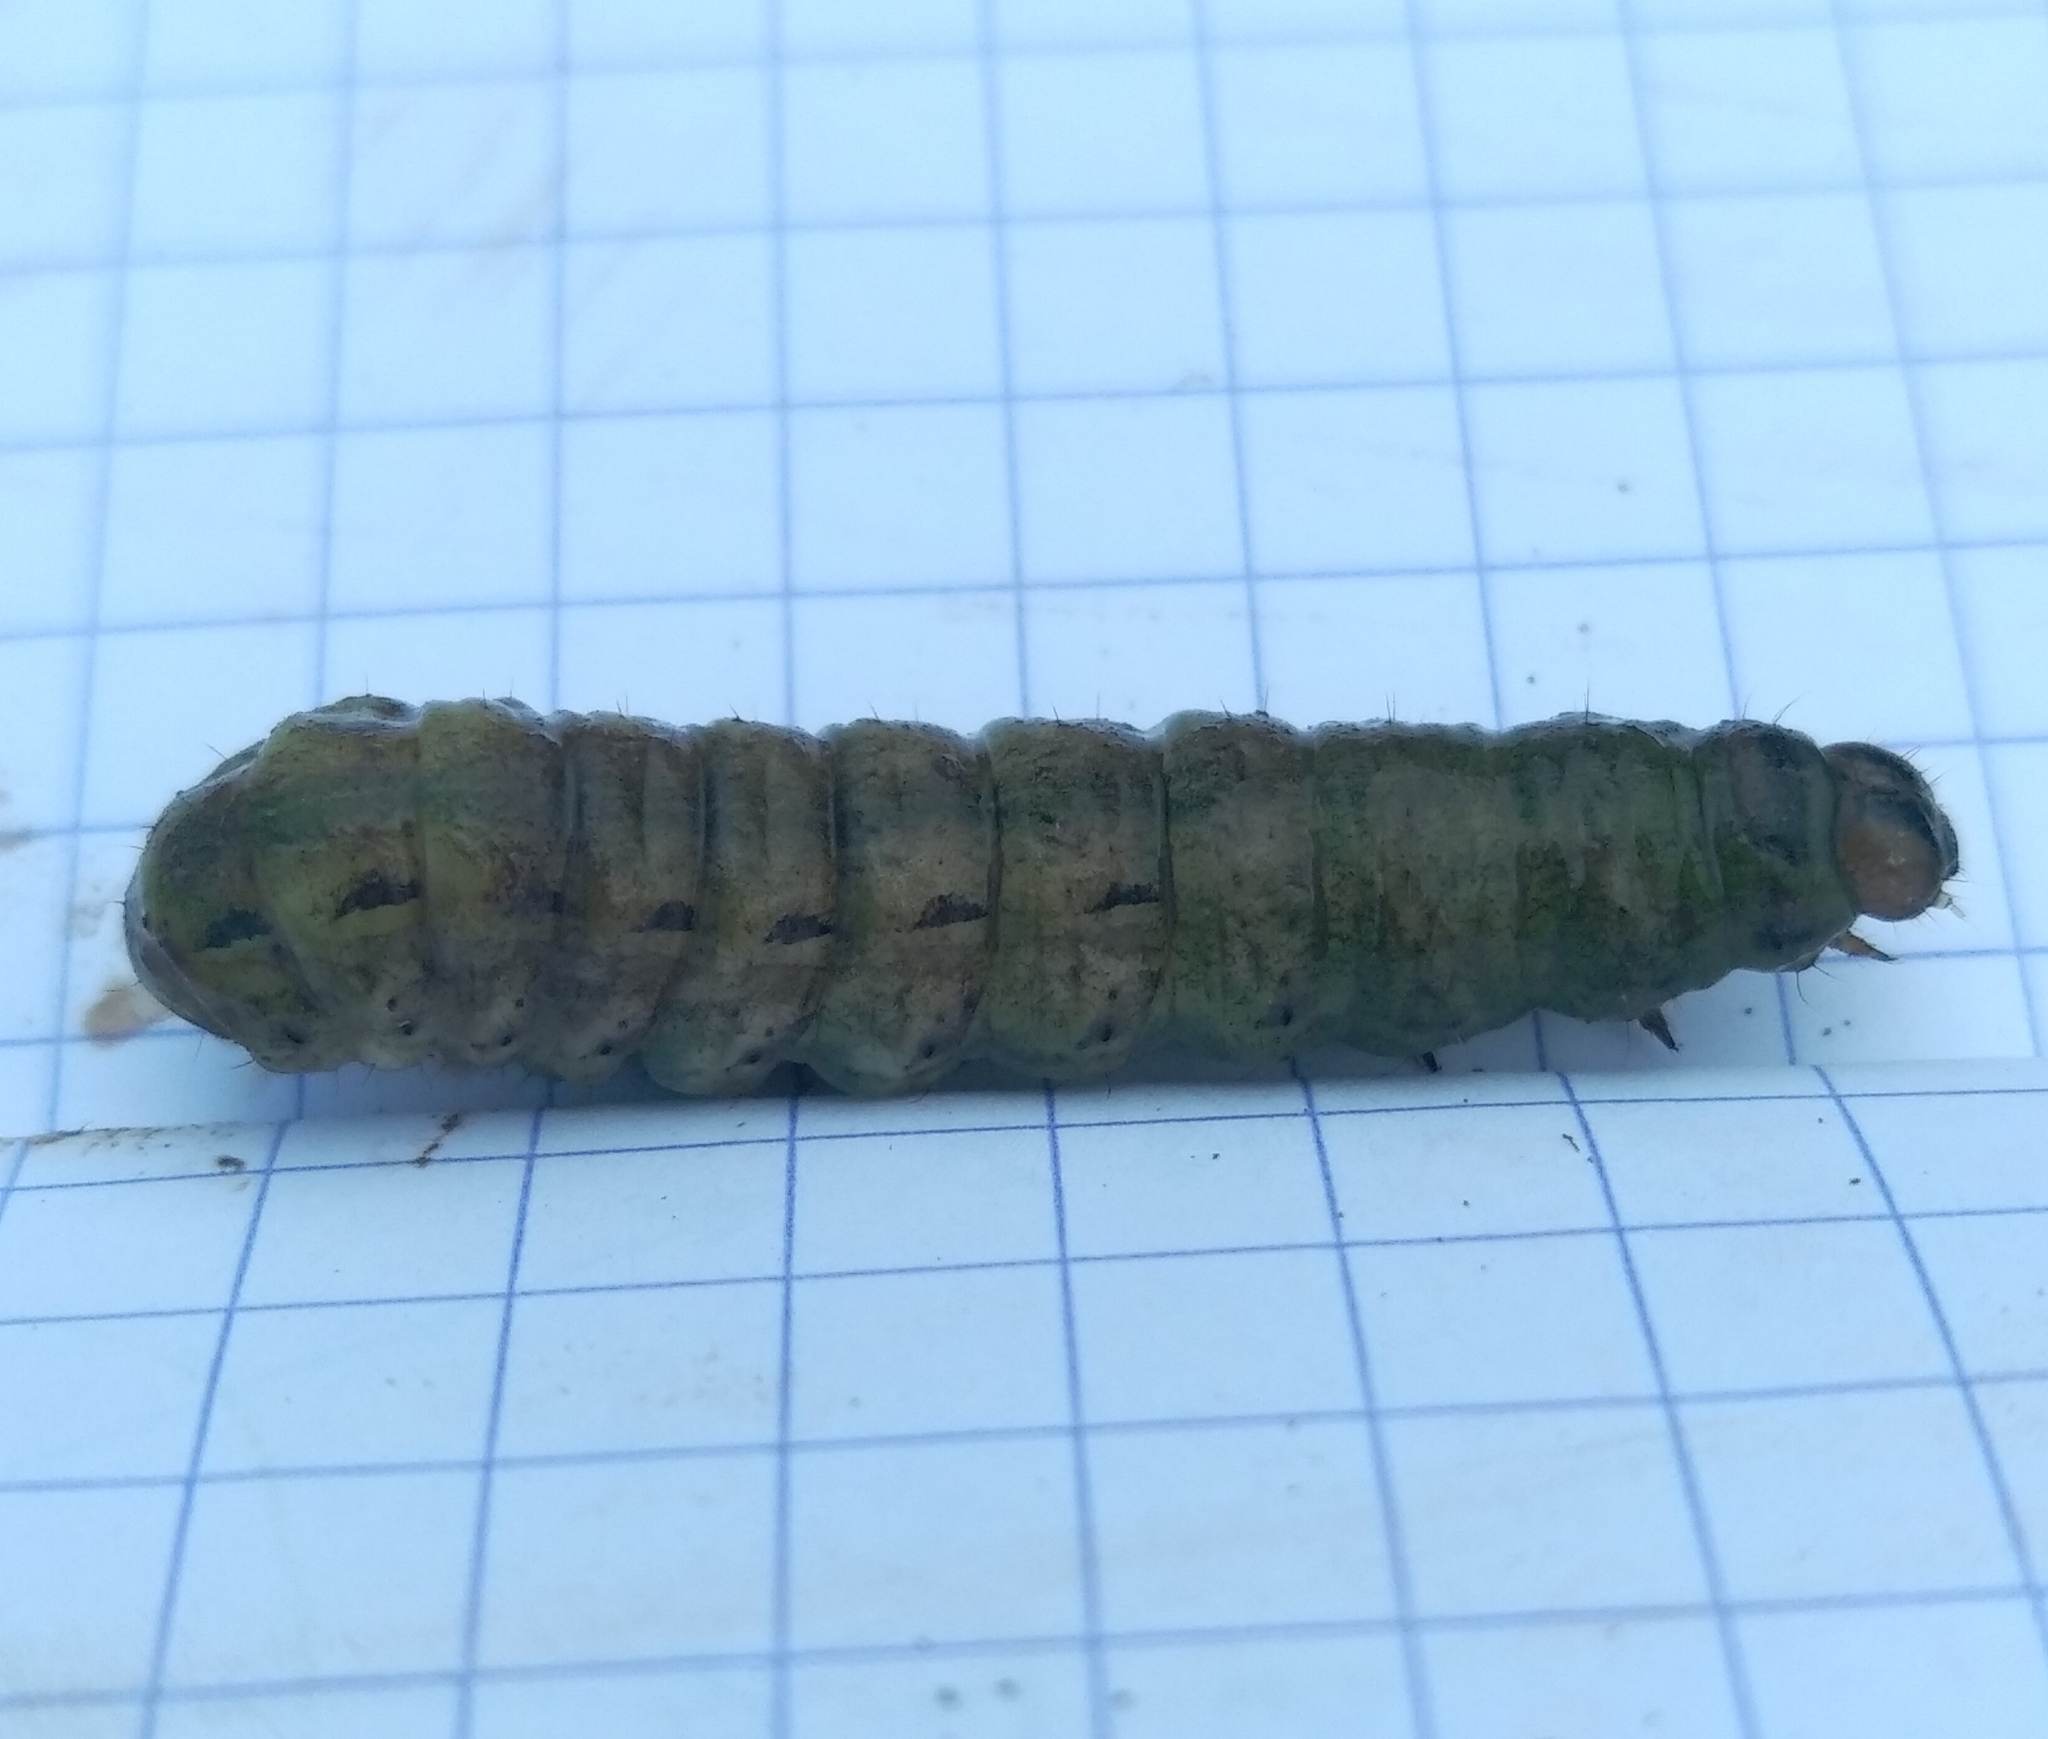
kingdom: Animalia
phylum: Arthropoda
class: Insecta
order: Lepidoptera
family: Noctuidae
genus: Noctua
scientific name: Noctua pronuba
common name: Large yellow underwing
